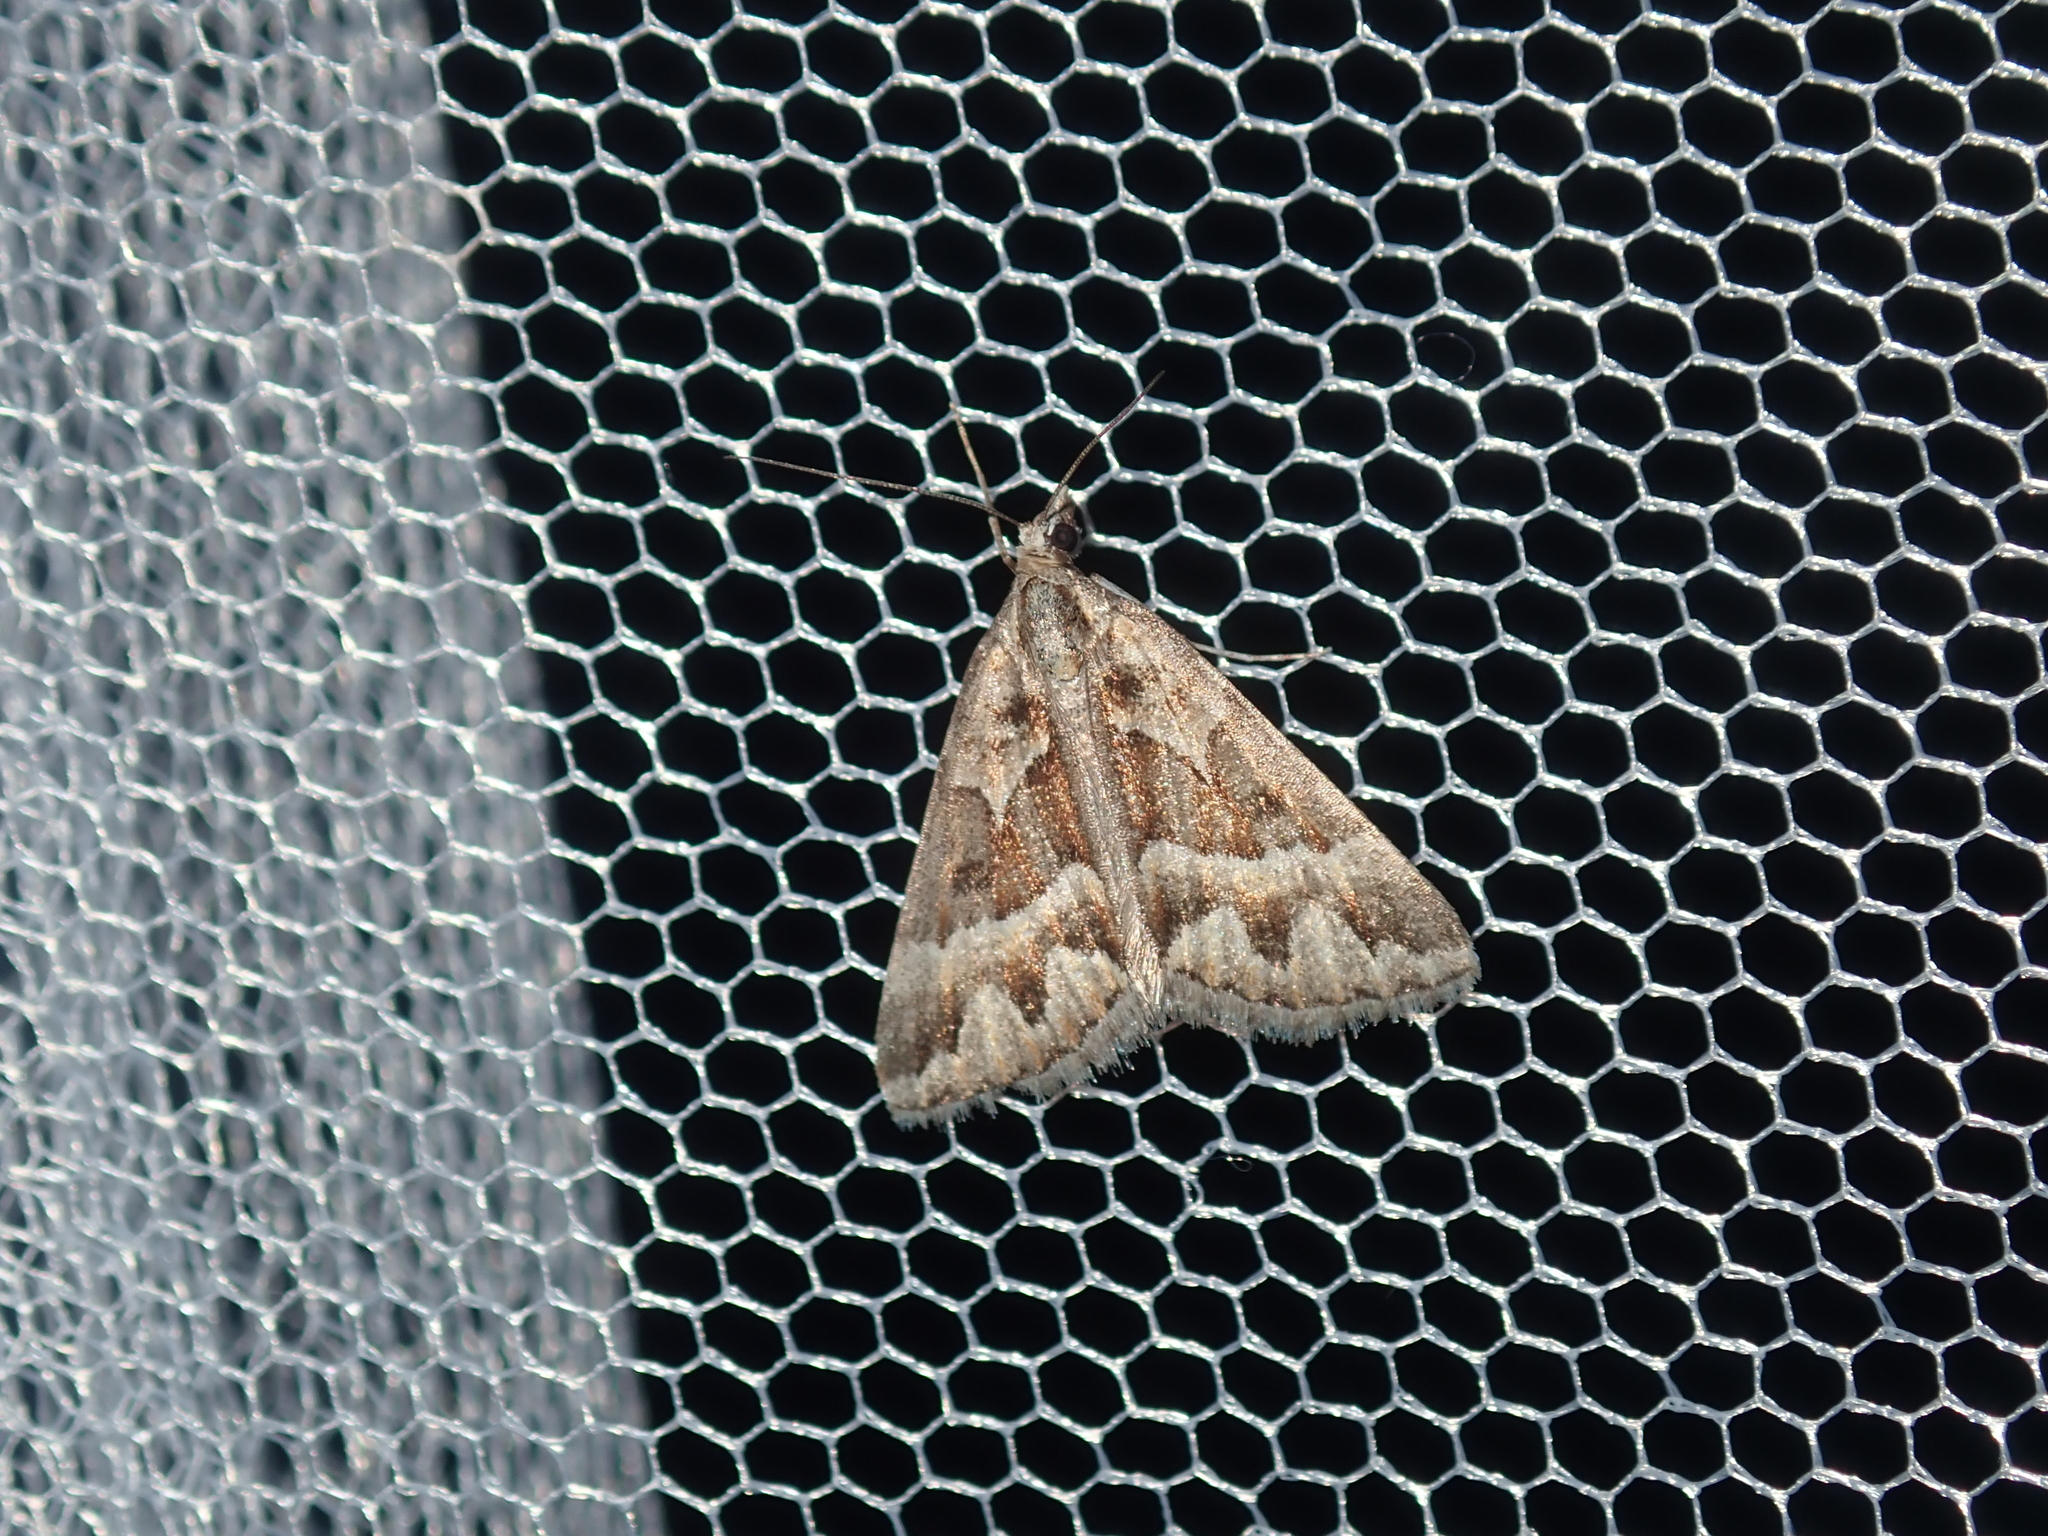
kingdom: Animalia
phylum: Arthropoda
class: Insecta
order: Lepidoptera
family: Geometridae
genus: Dichromodes
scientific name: Dichromodes poecilotis
